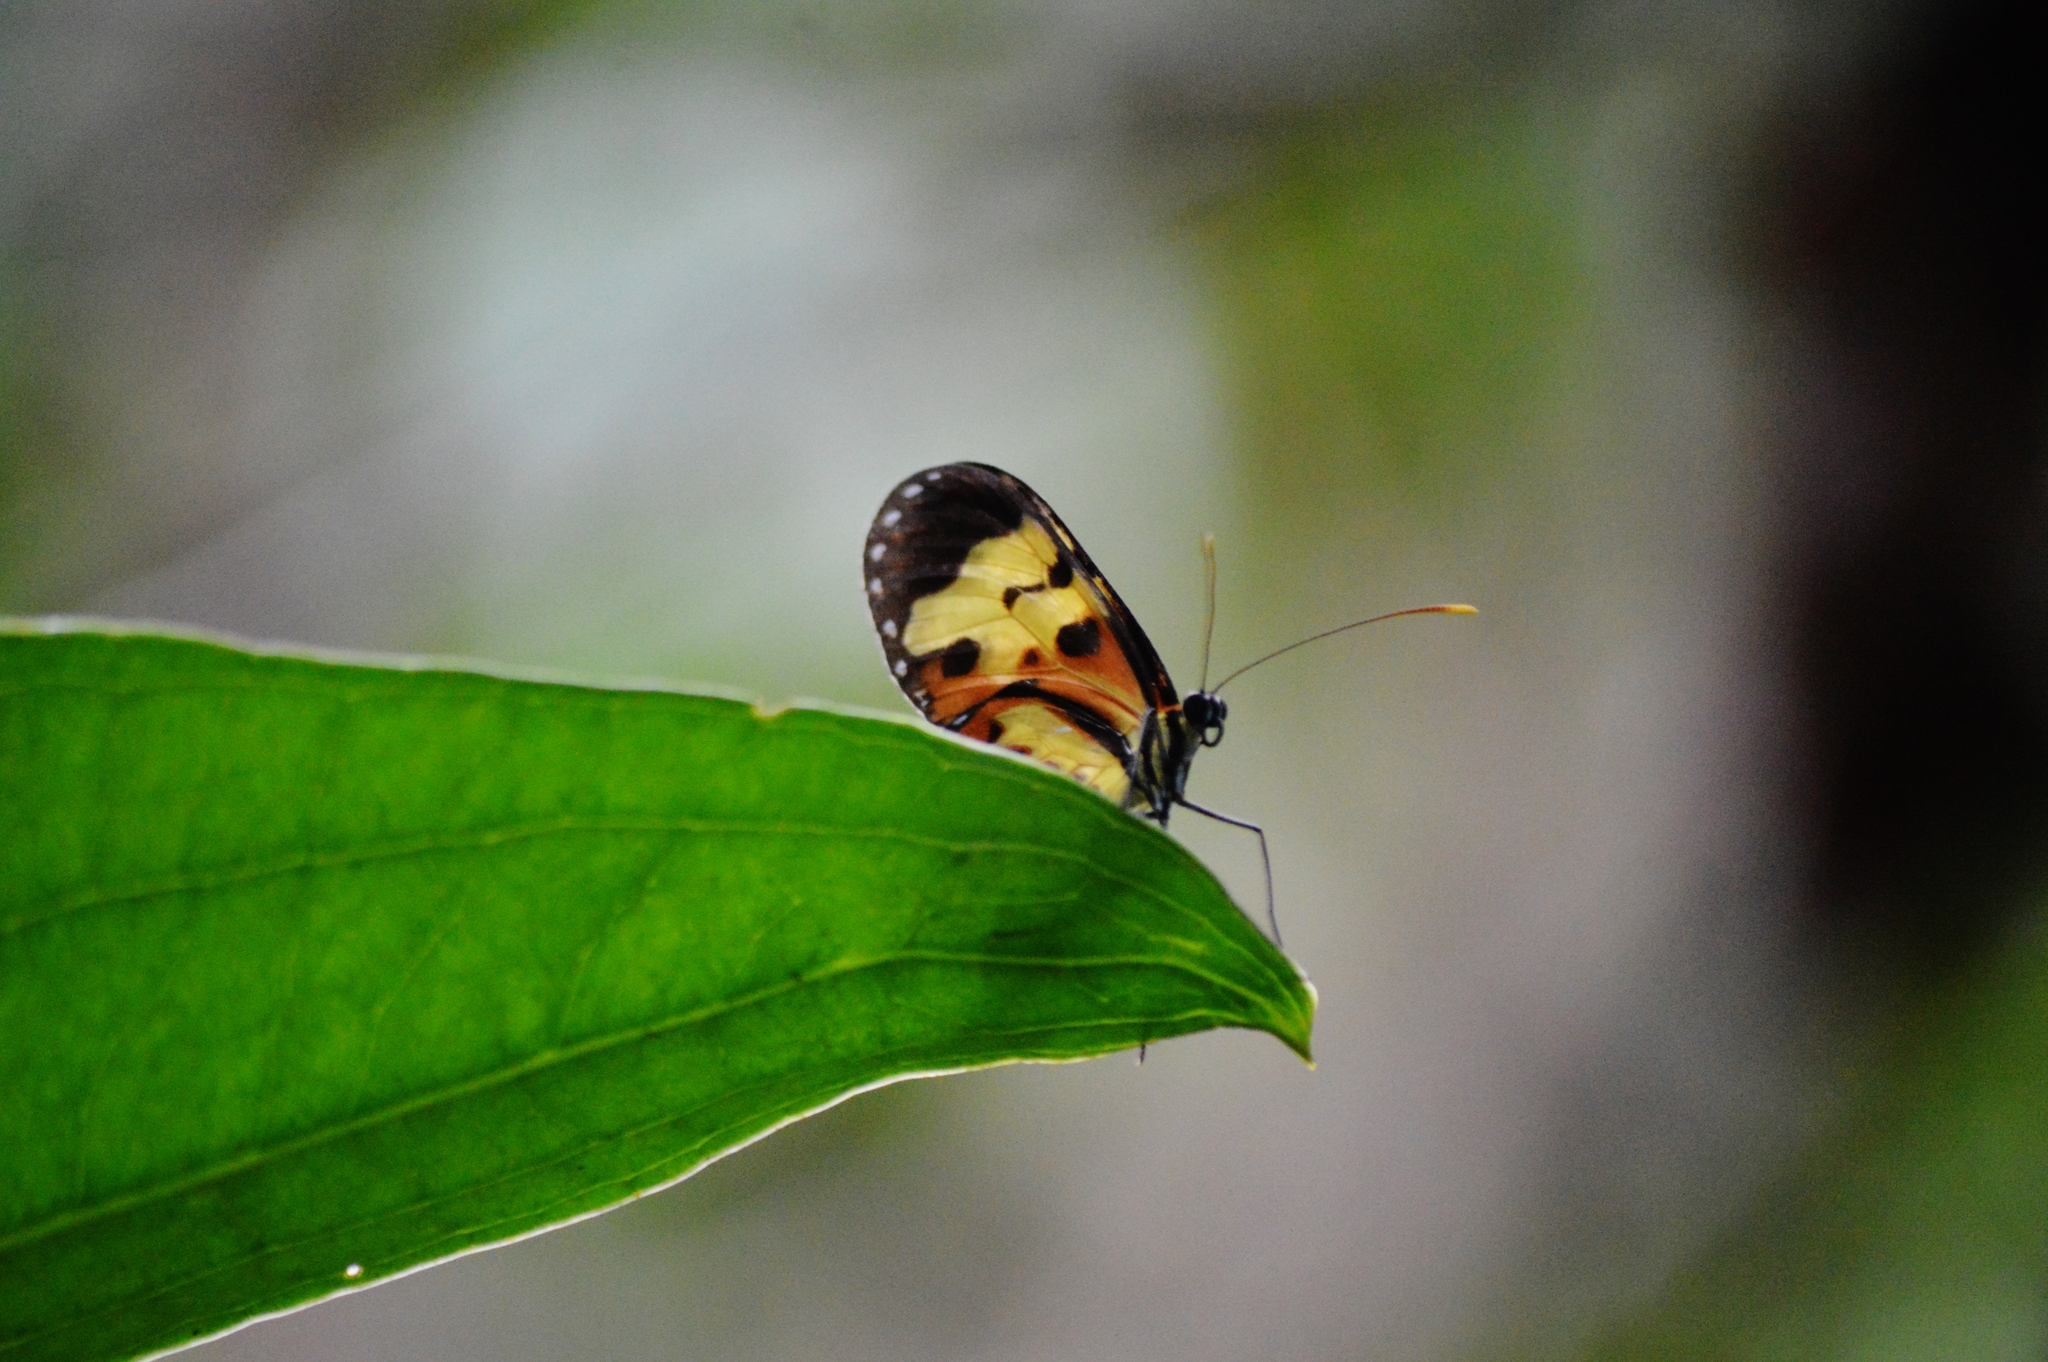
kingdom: Animalia
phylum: Arthropoda
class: Insecta
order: Lepidoptera
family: Nymphalidae
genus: Mechanitis
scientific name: Mechanitis polymnia
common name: Disturbed tigerwing
